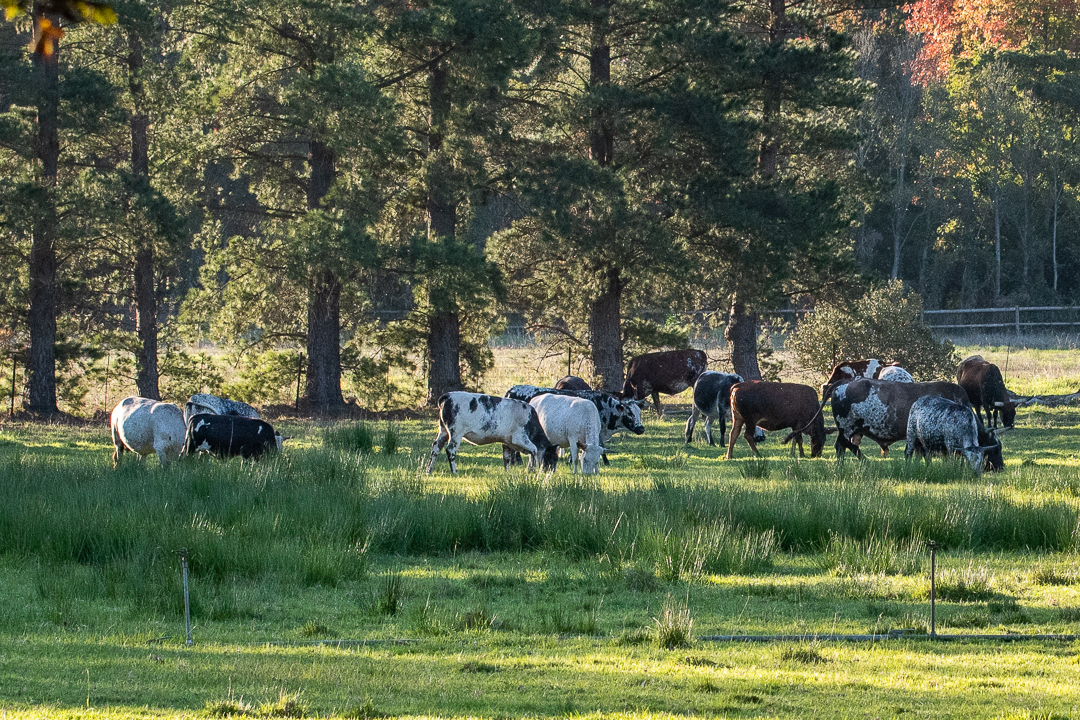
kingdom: Animalia
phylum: Chordata
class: Mammalia
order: Artiodactyla
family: Bovidae
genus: Bos
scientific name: Bos taurus
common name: Domesticated cattle
